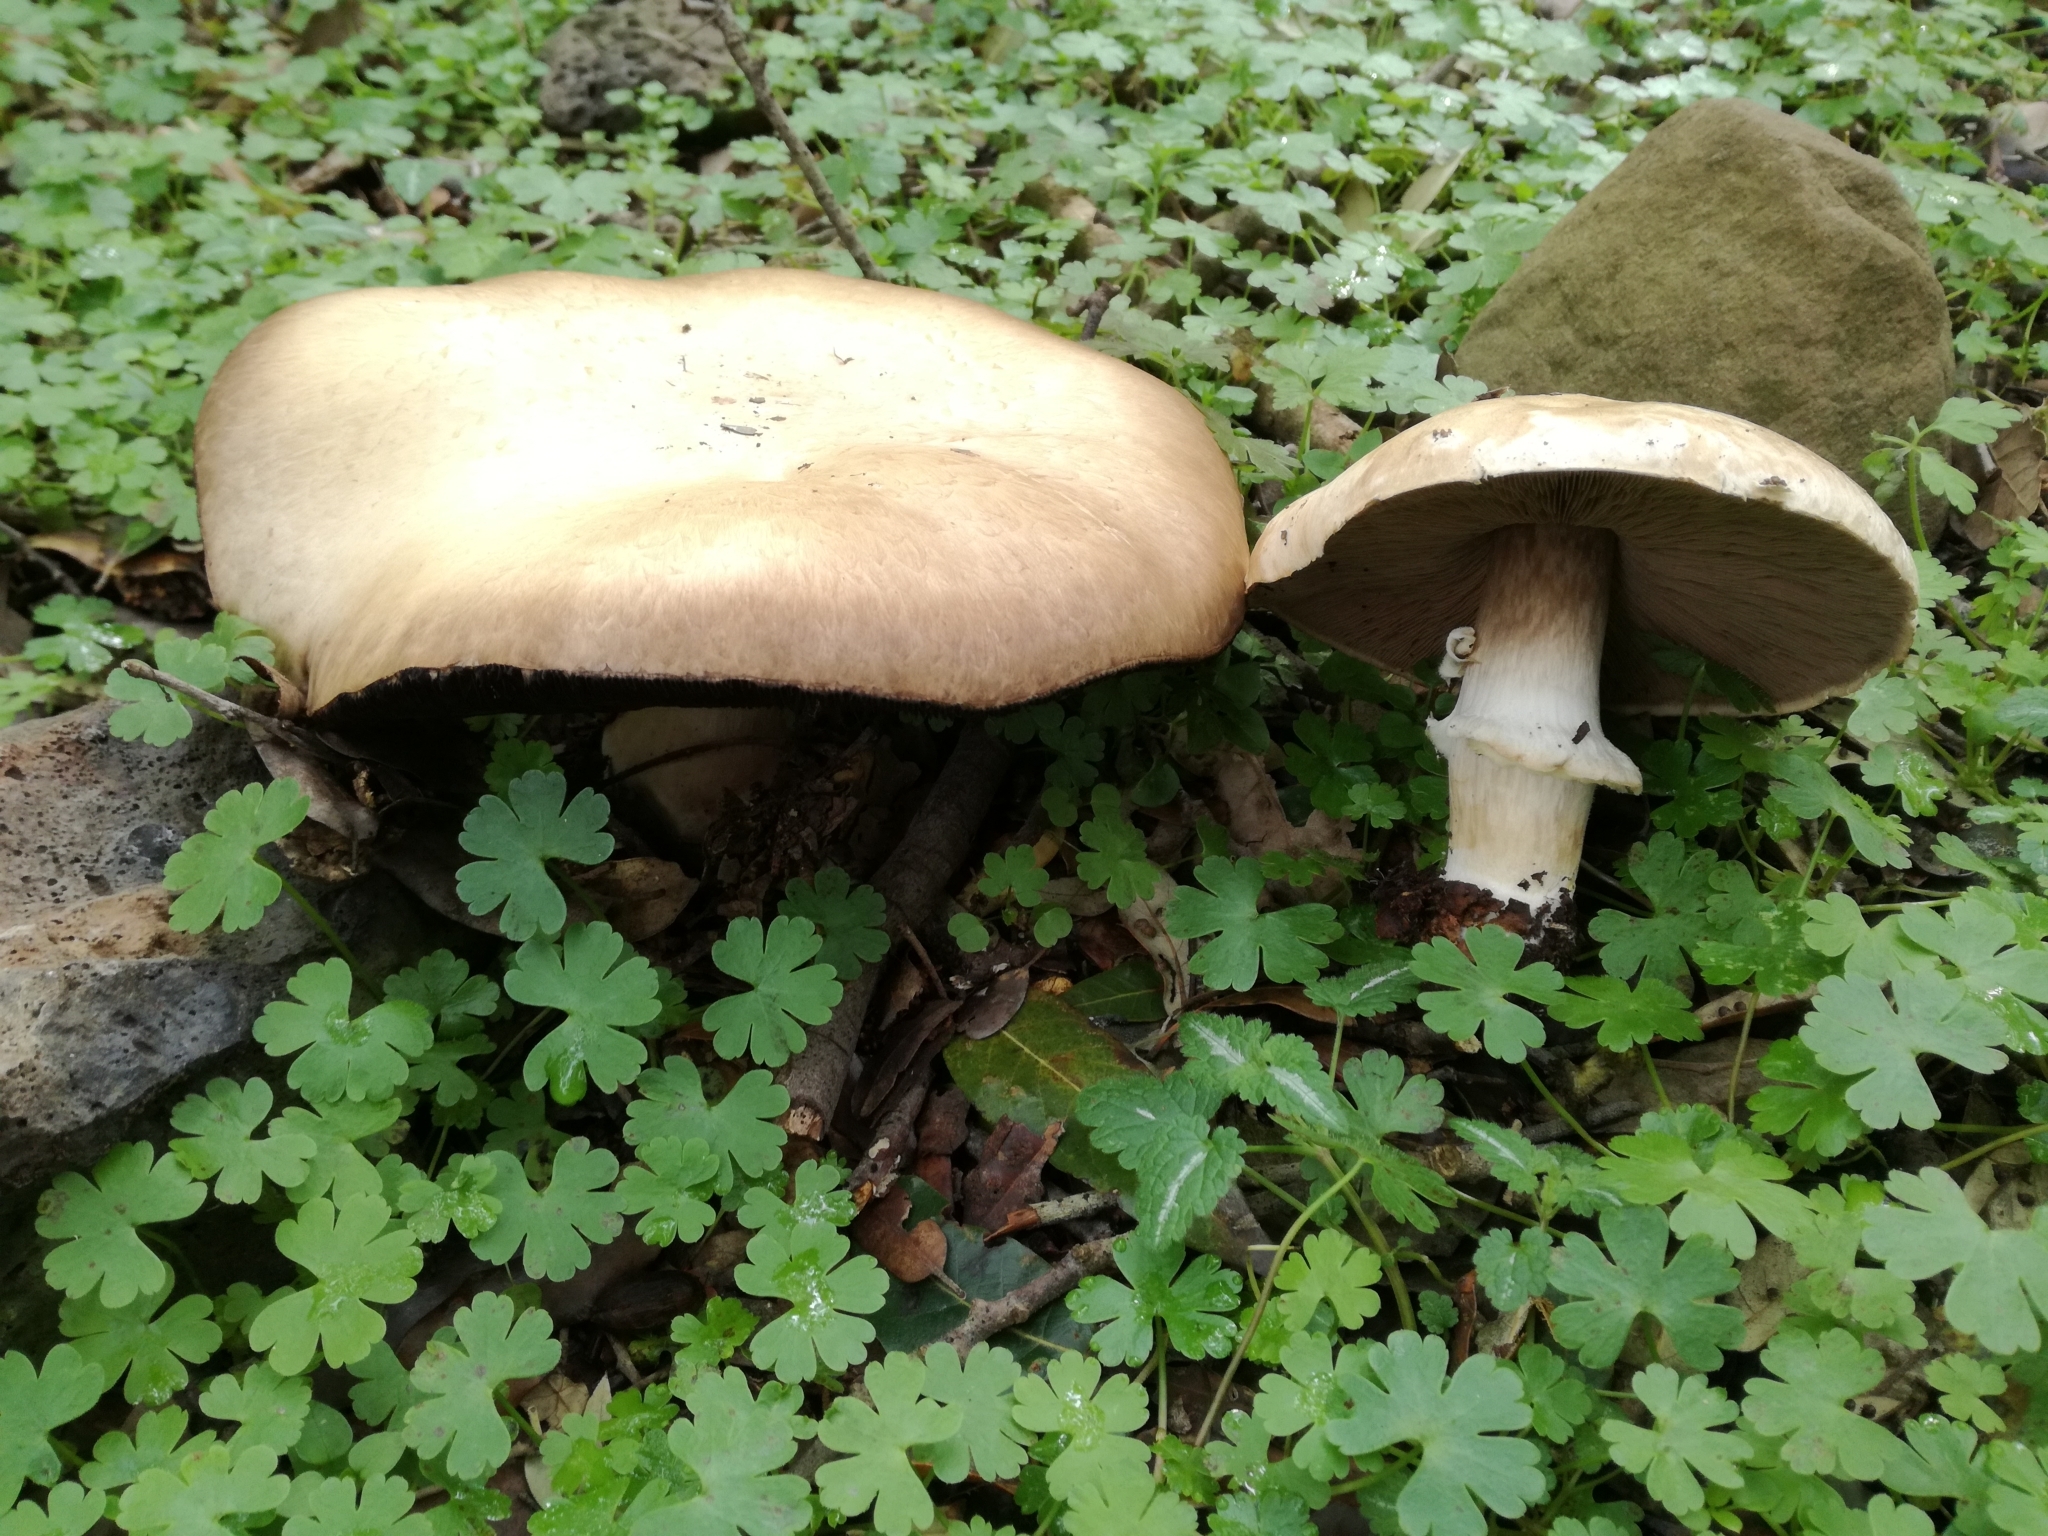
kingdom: Fungi
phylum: Basidiomycota
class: Agaricomycetes
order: Agaricales
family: Agaricaceae
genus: Agaricus
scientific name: Agaricus sylvicola
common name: Wood mushroom
